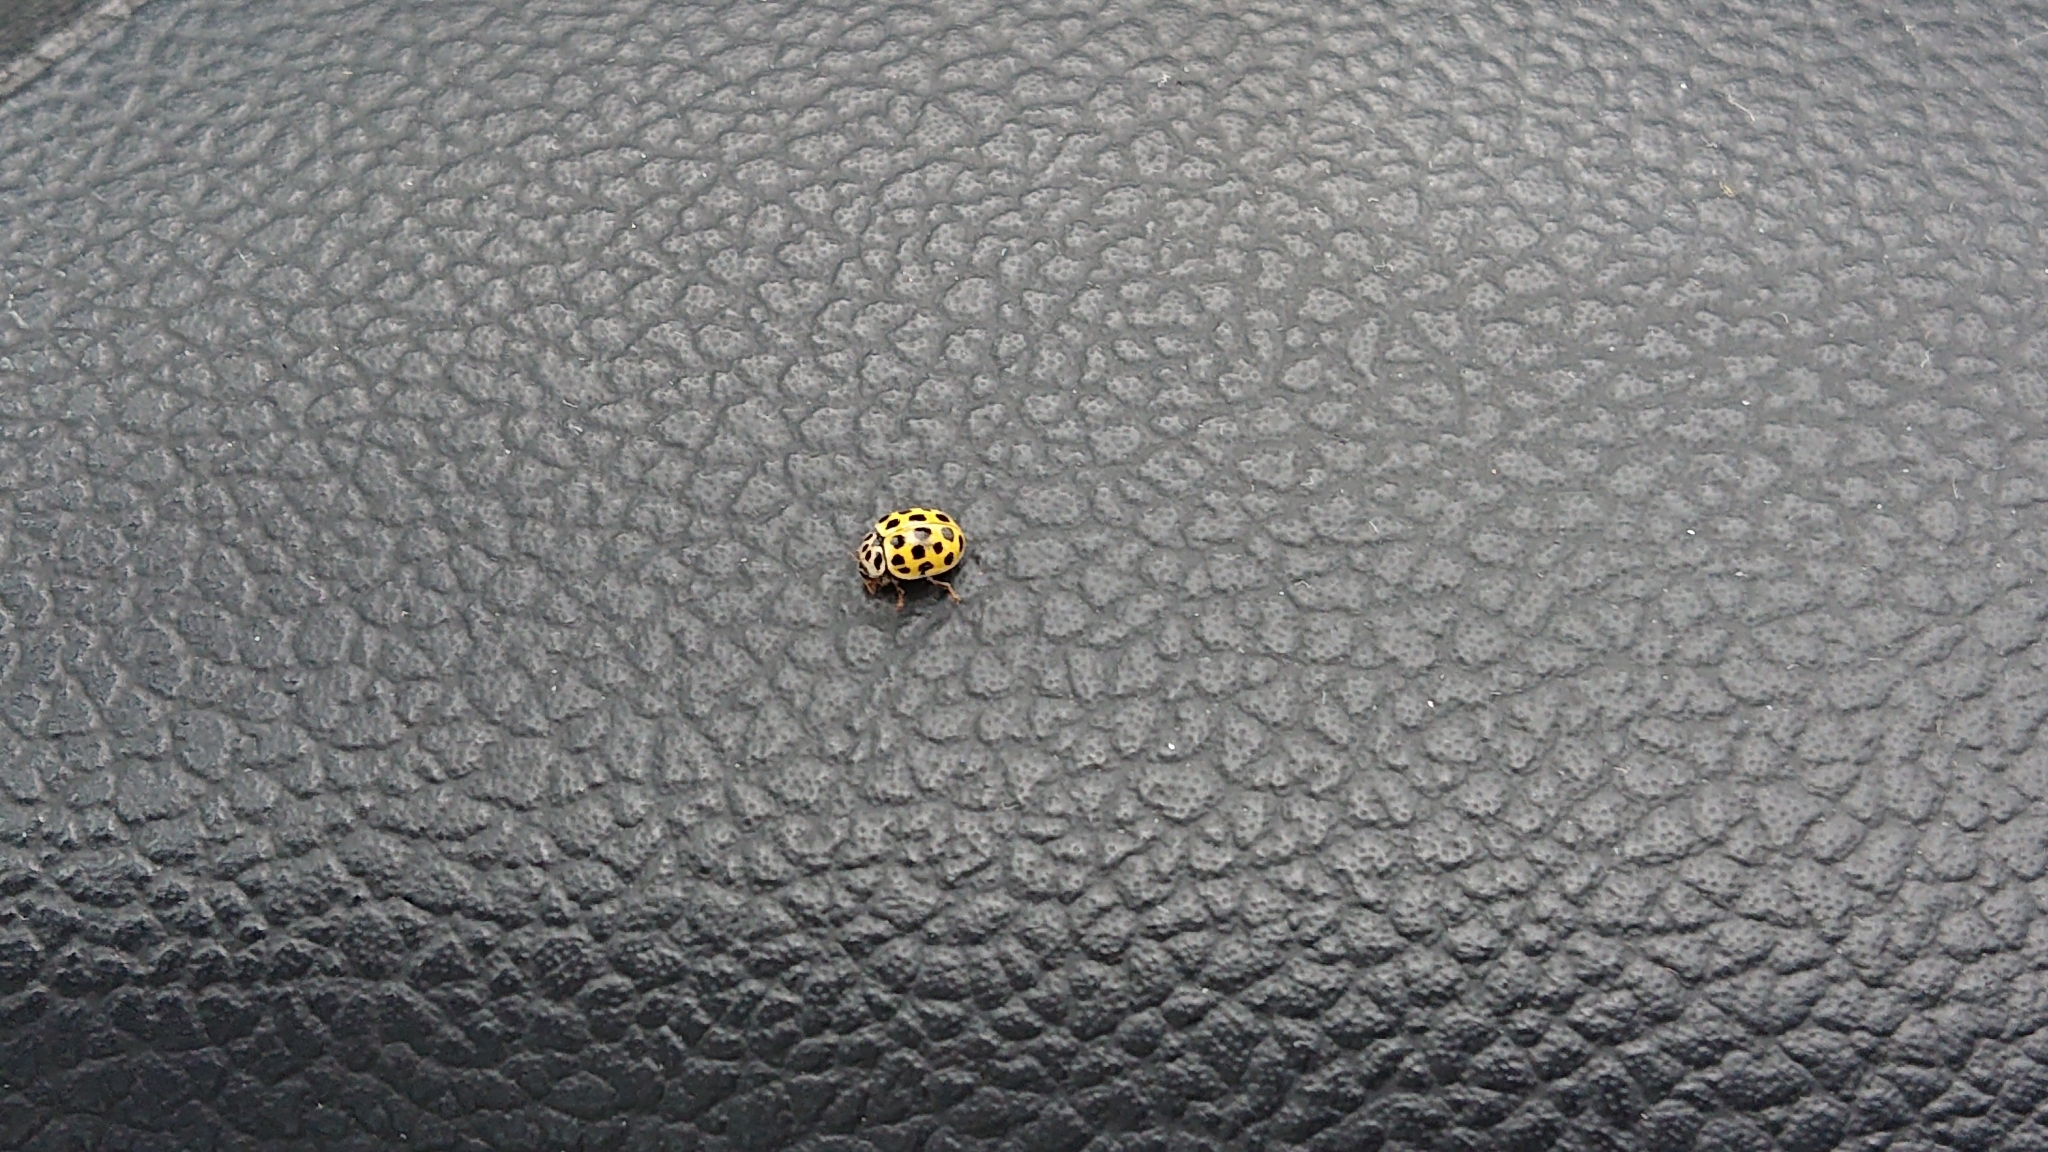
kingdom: Animalia
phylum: Arthropoda
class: Insecta
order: Coleoptera
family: Coccinellidae
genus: Psyllobora
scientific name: Psyllobora vigintiduopunctata
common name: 22-spot ladybird
